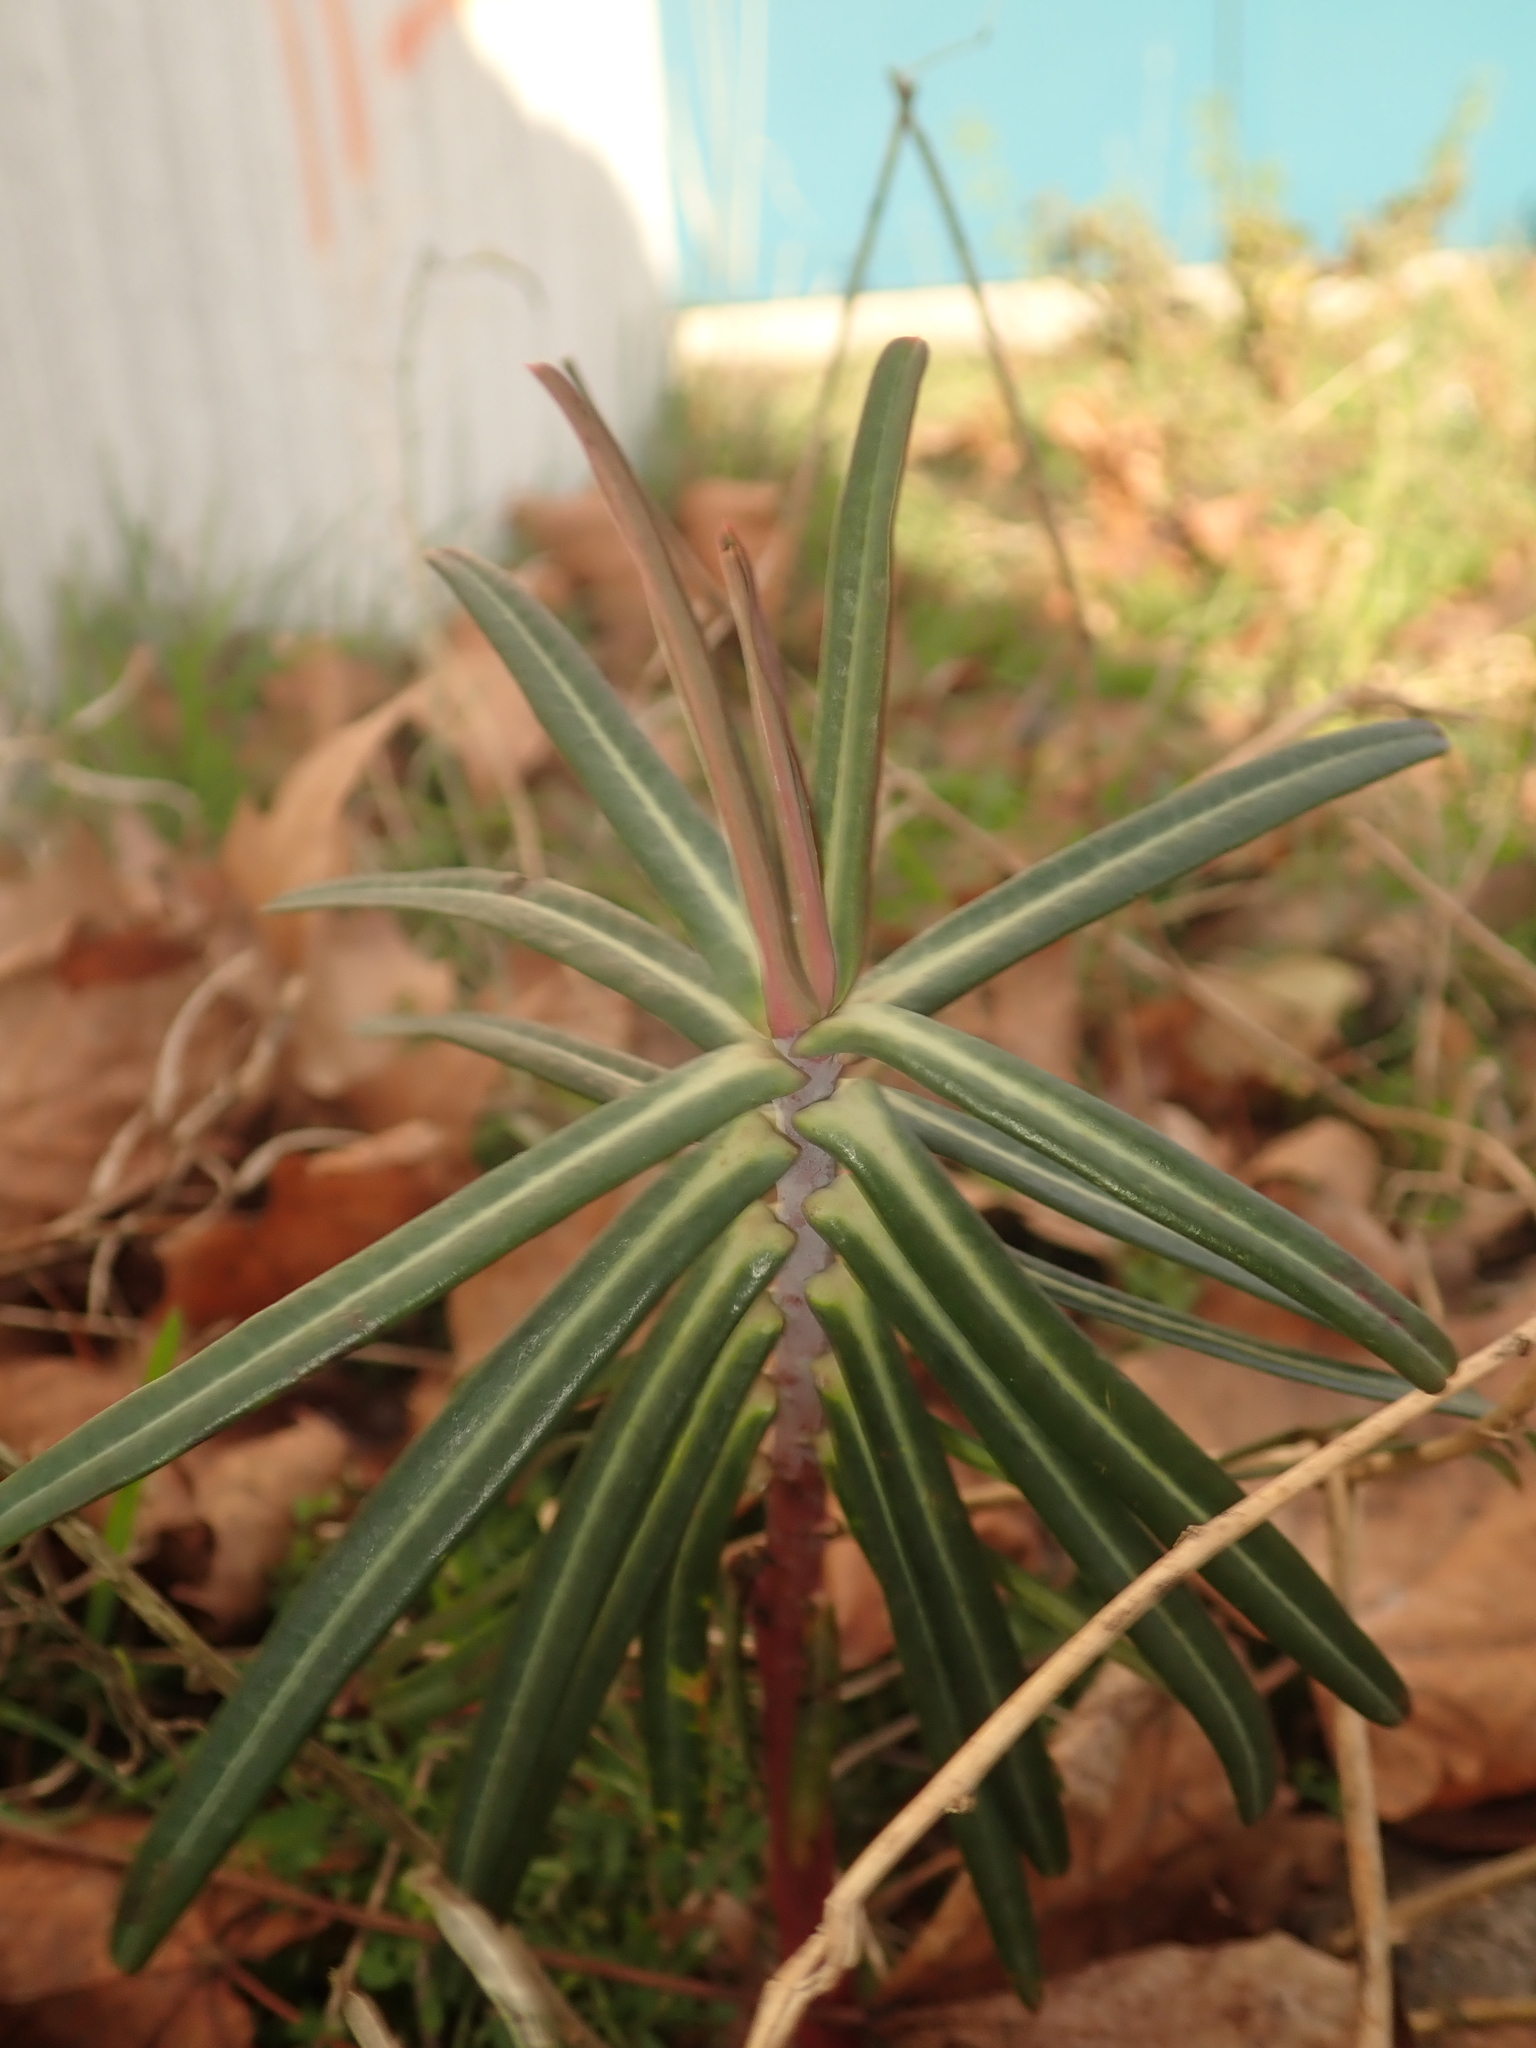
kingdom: Plantae
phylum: Tracheophyta
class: Magnoliopsida
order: Malpighiales
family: Euphorbiaceae
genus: Euphorbia
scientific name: Euphorbia lathyris
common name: Caper spurge
